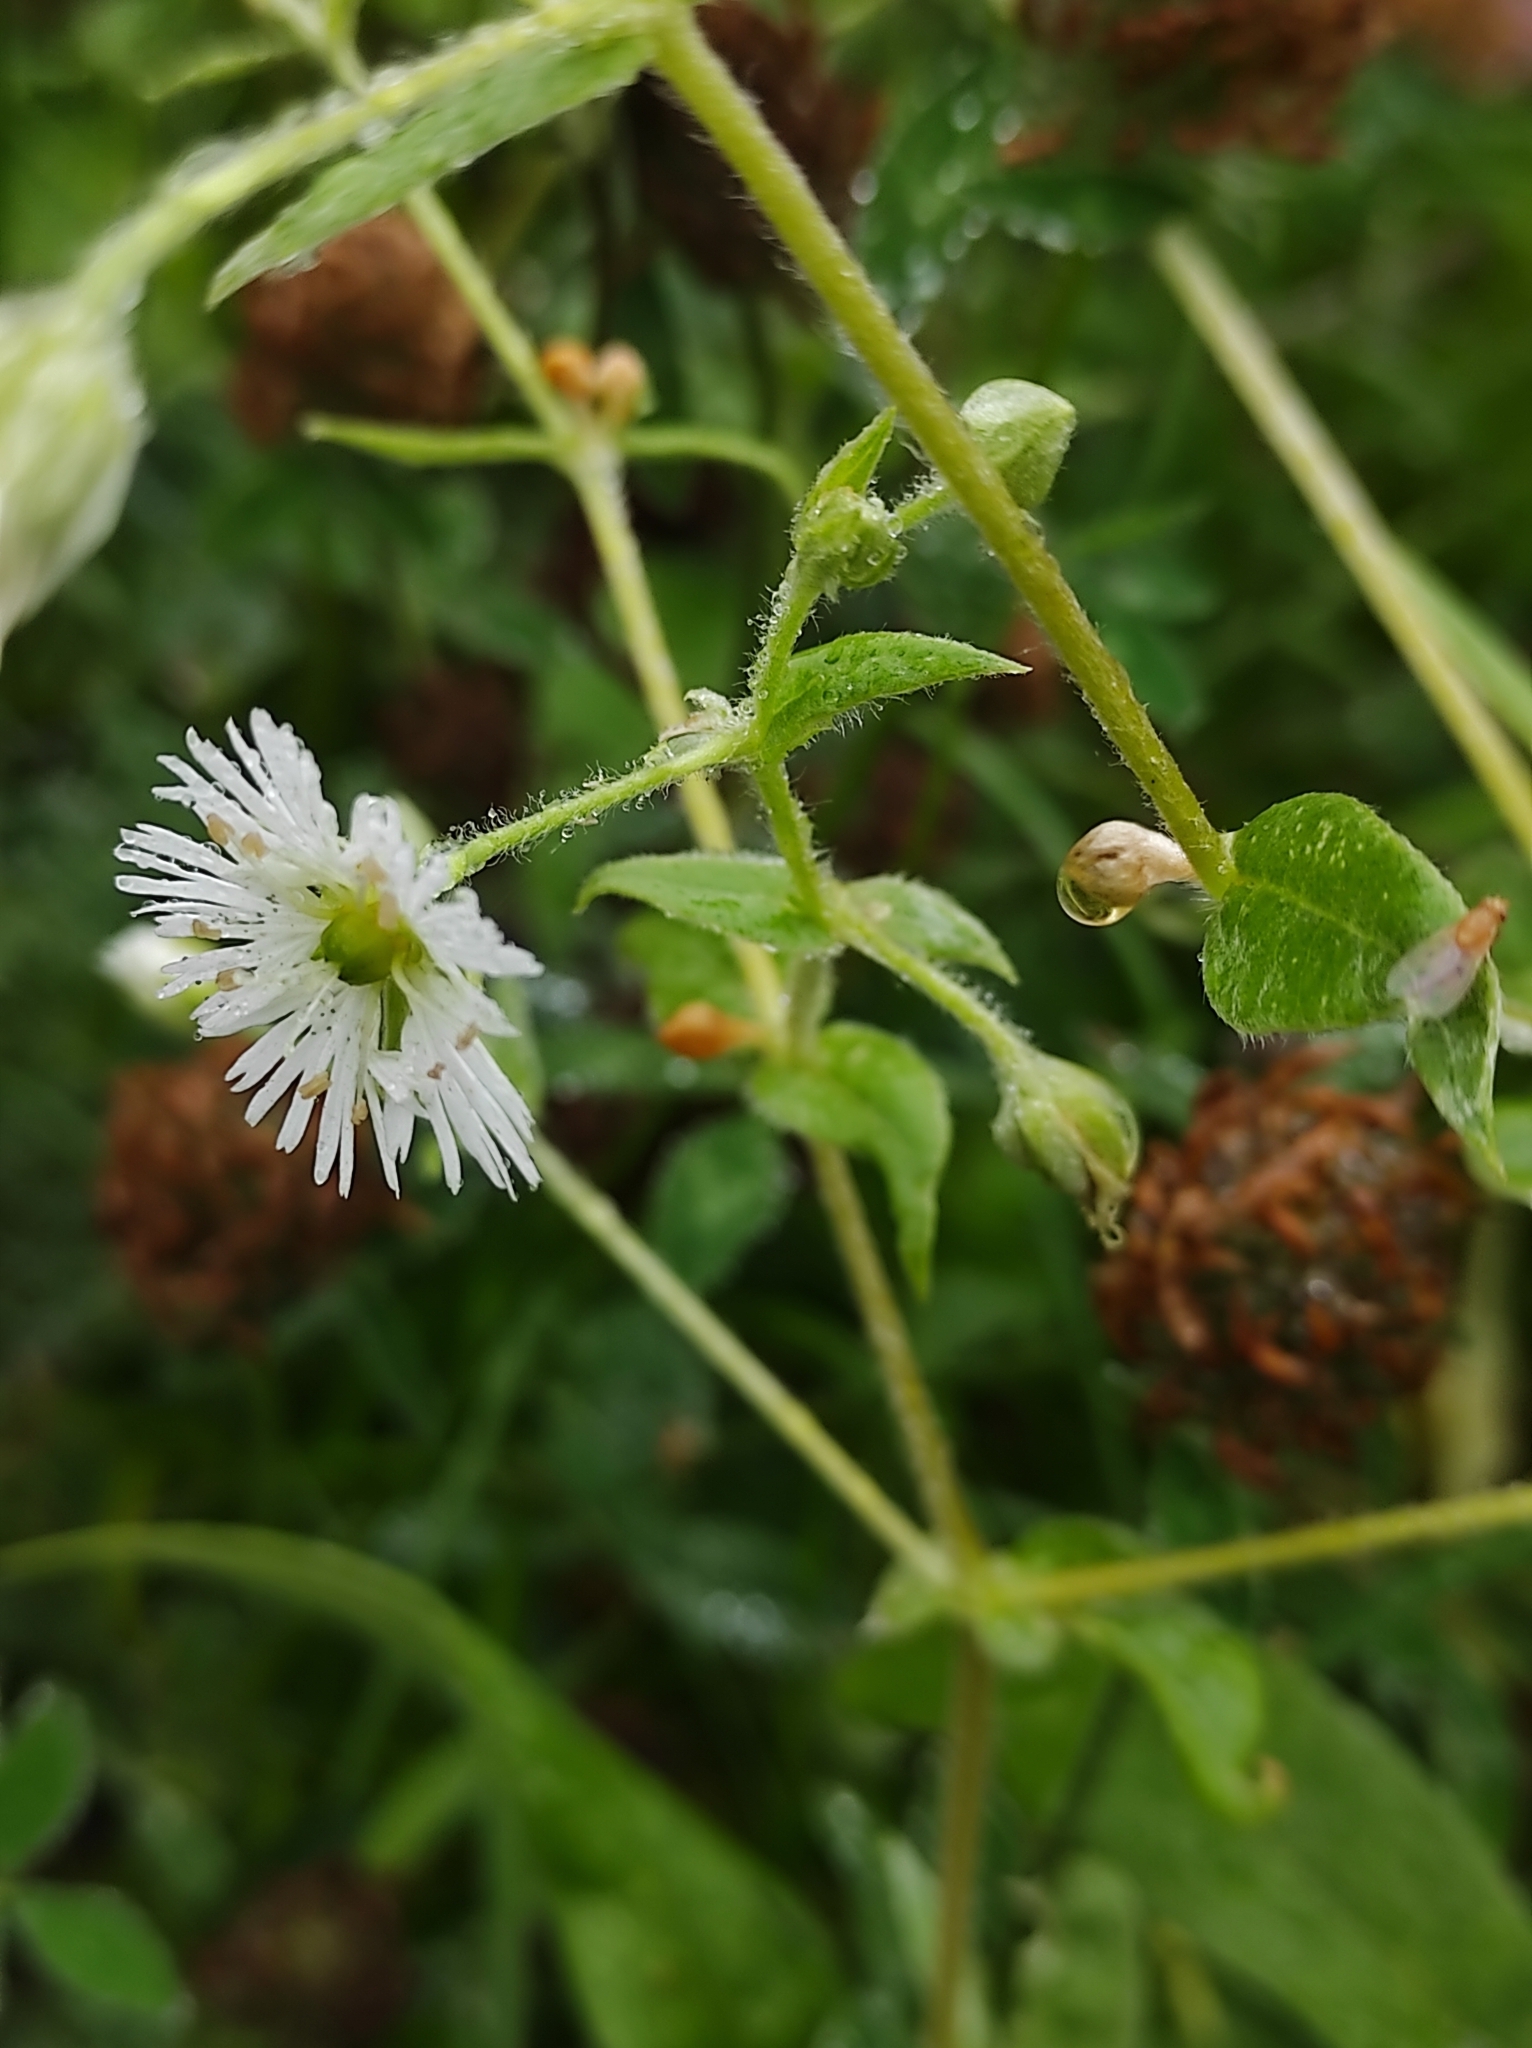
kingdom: Plantae
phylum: Tracheophyta
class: Magnoliopsida
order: Caryophyllales
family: Caryophyllaceae
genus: Stellaria
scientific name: Stellaria radians
